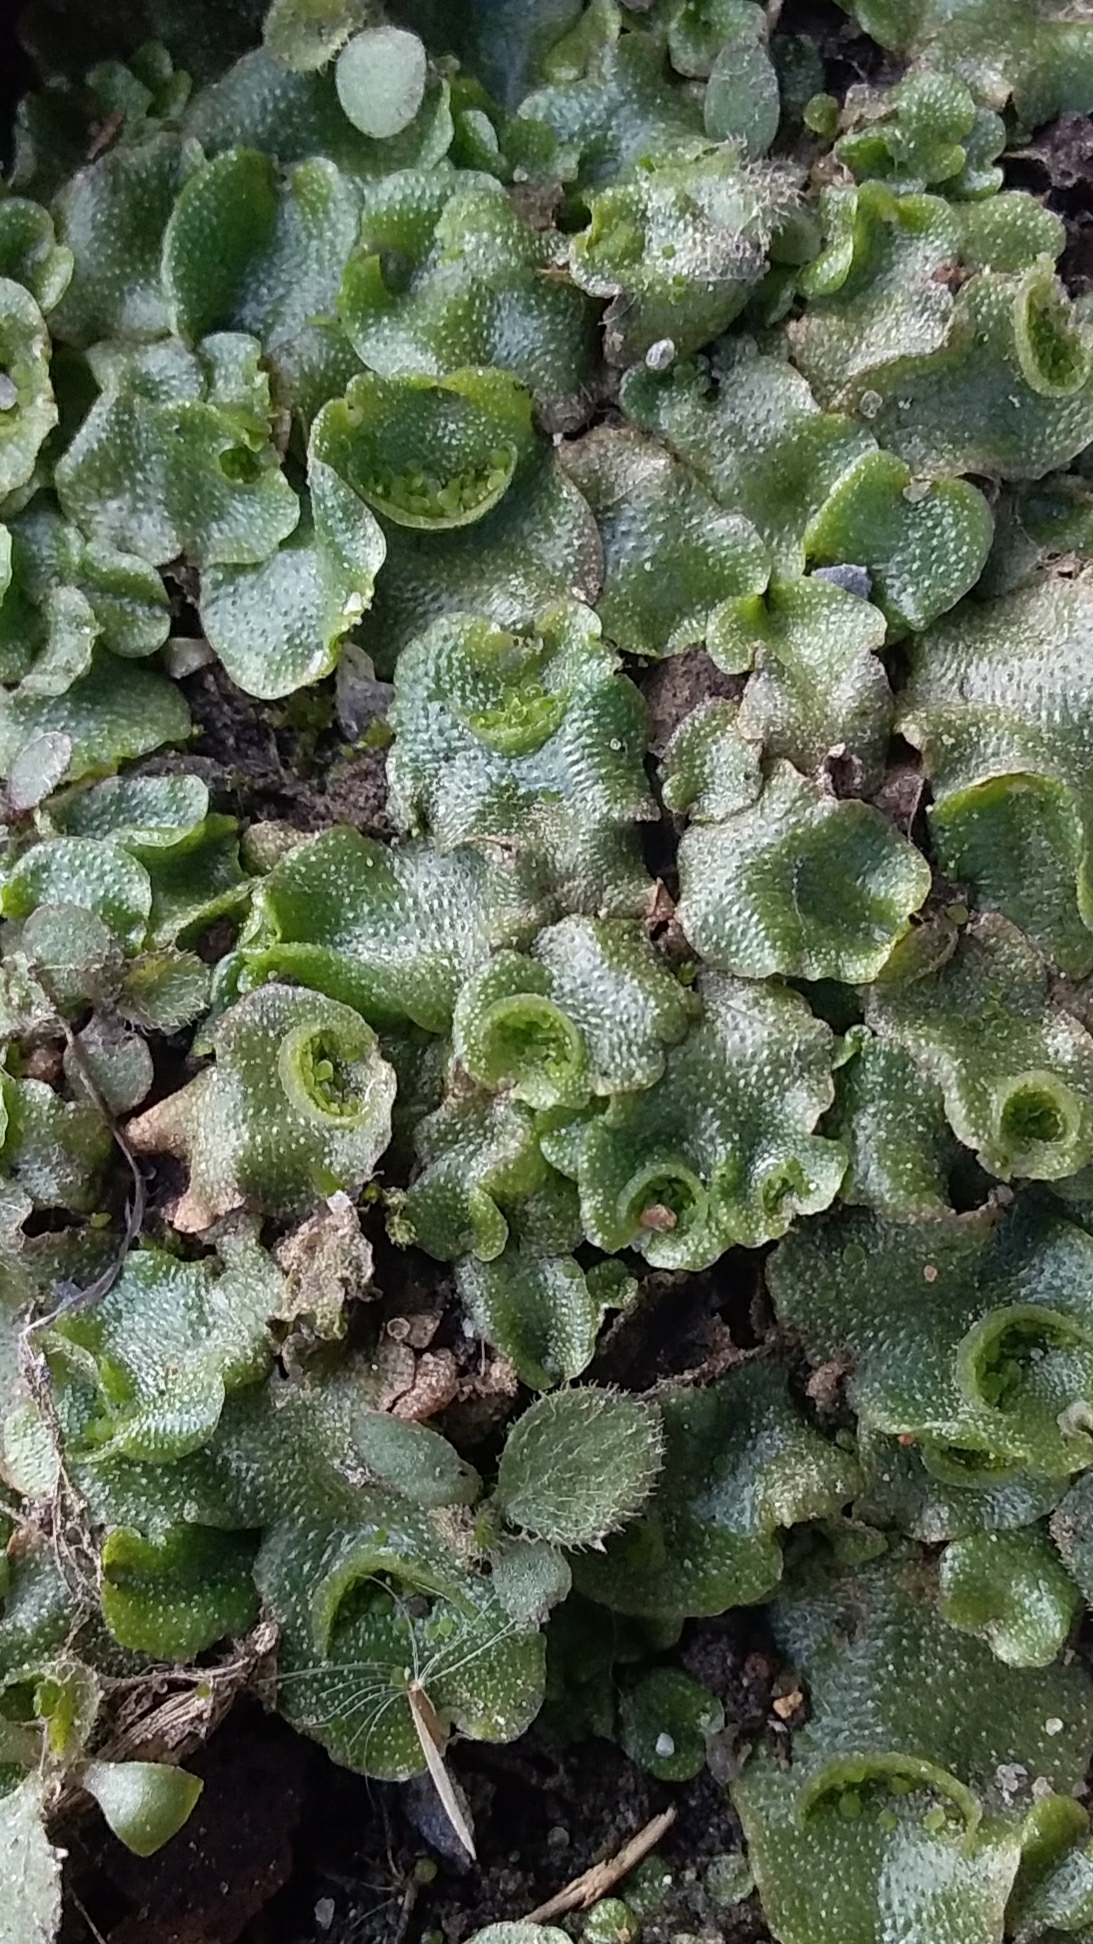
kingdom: Plantae
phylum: Marchantiophyta
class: Marchantiopsida
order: Lunulariales
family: Lunulariaceae
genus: Lunularia
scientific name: Lunularia cruciata
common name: Crescent-cup liverwort
